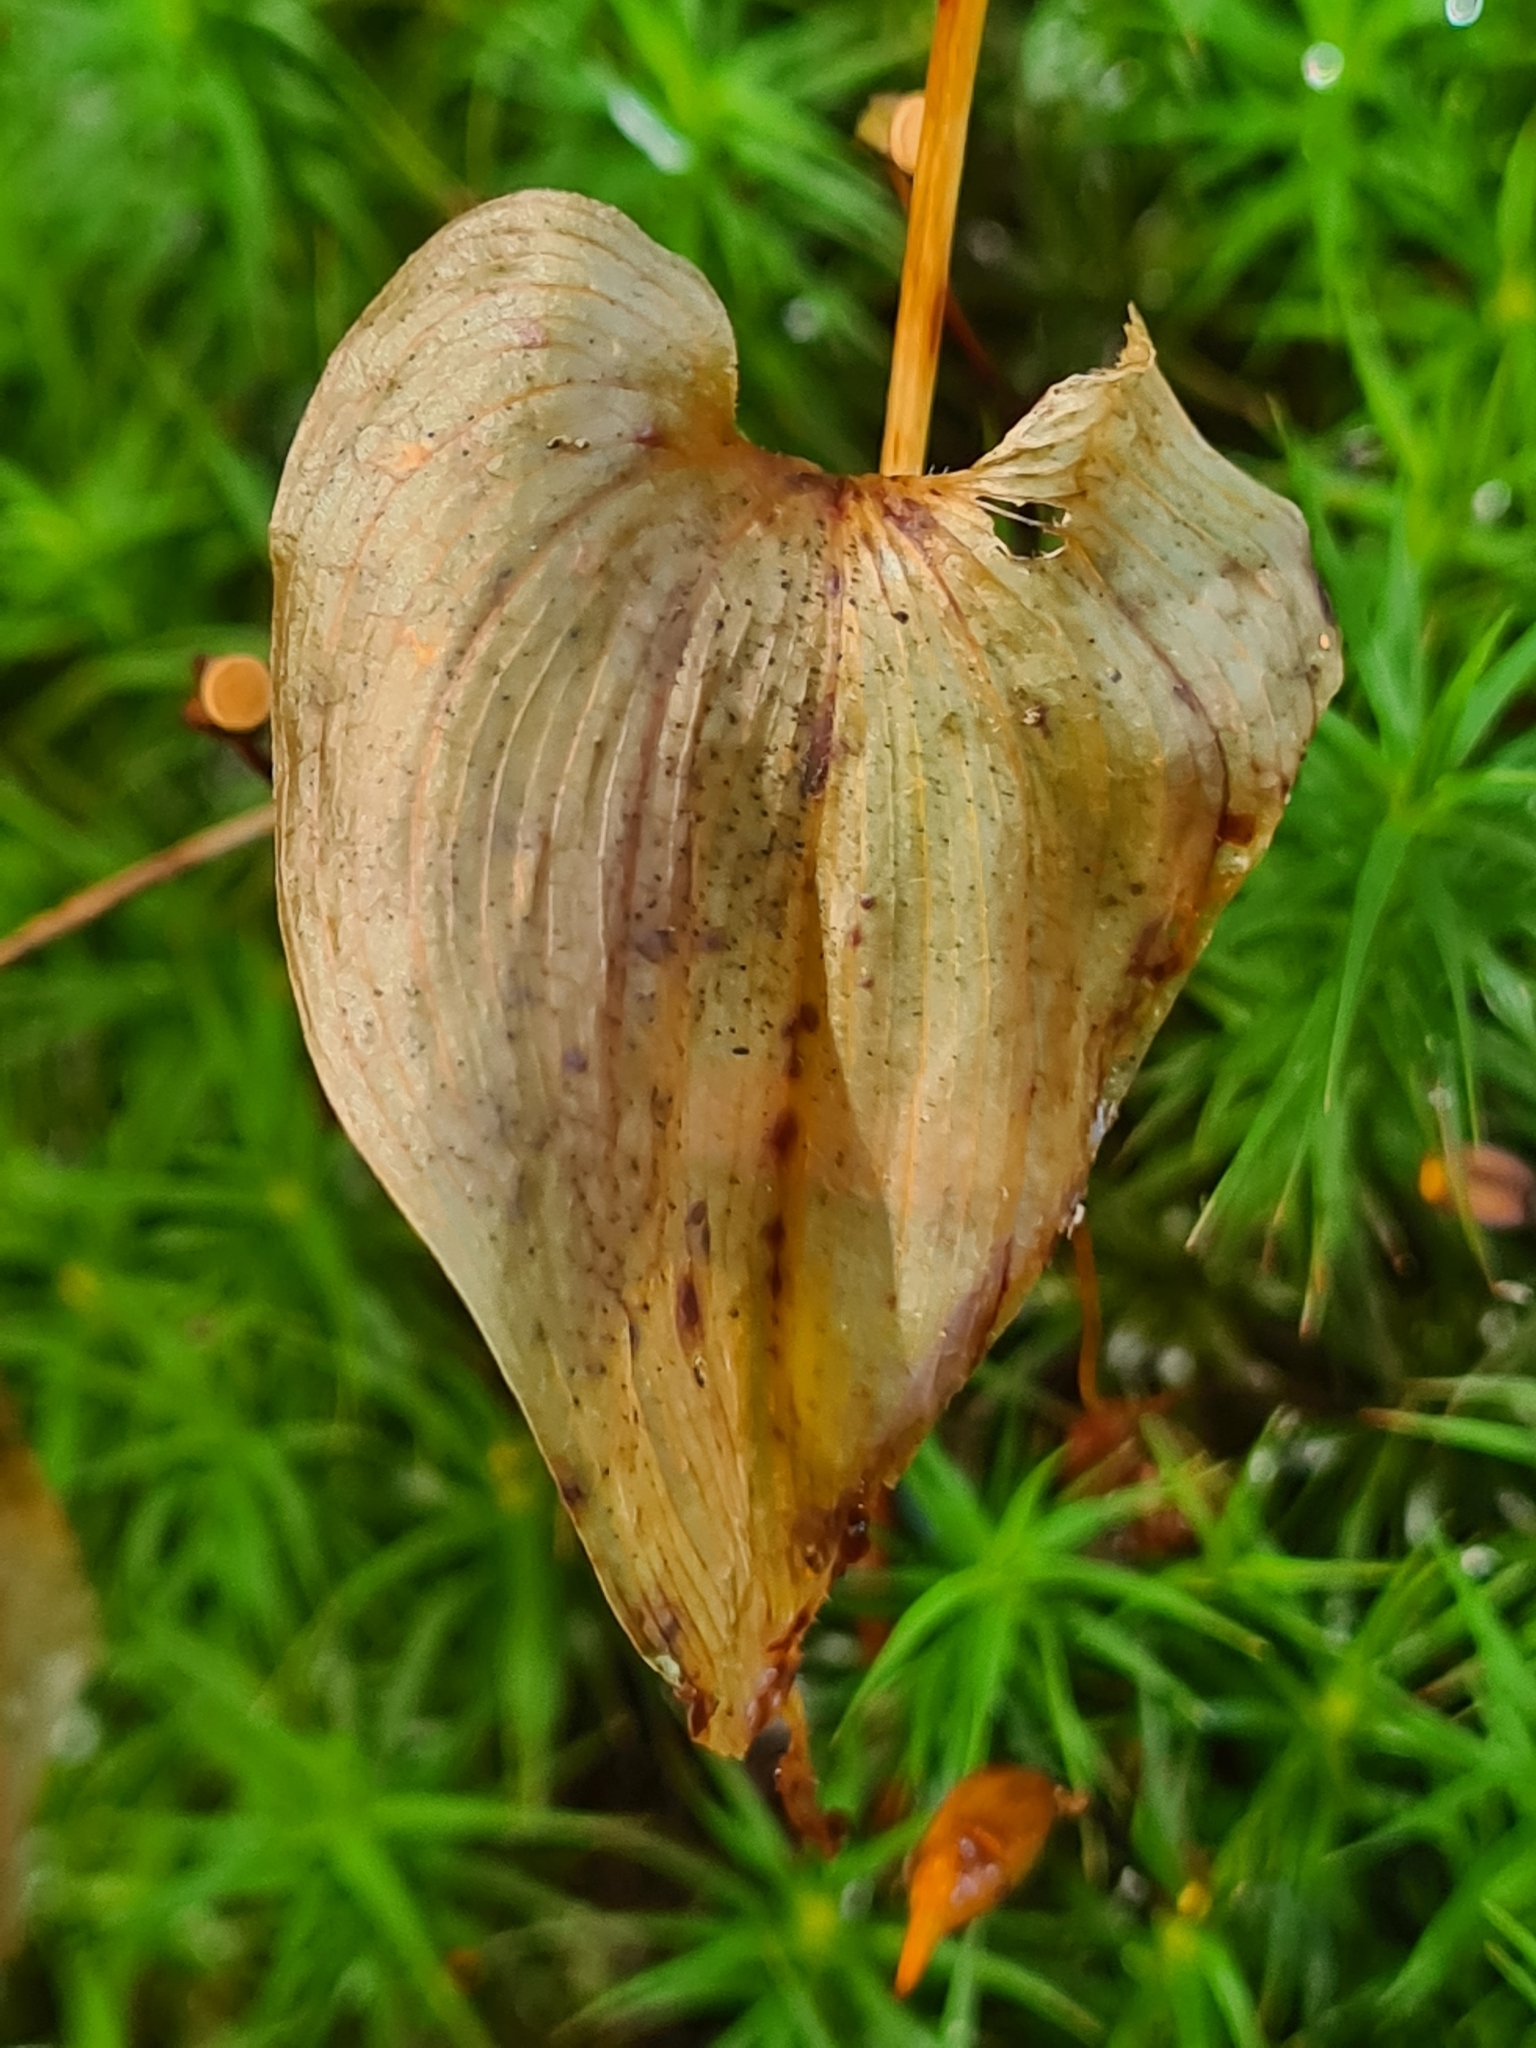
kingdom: Plantae
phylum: Tracheophyta
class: Liliopsida
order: Asparagales
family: Asparagaceae
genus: Maianthemum
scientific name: Maianthemum bifolium
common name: May lily
